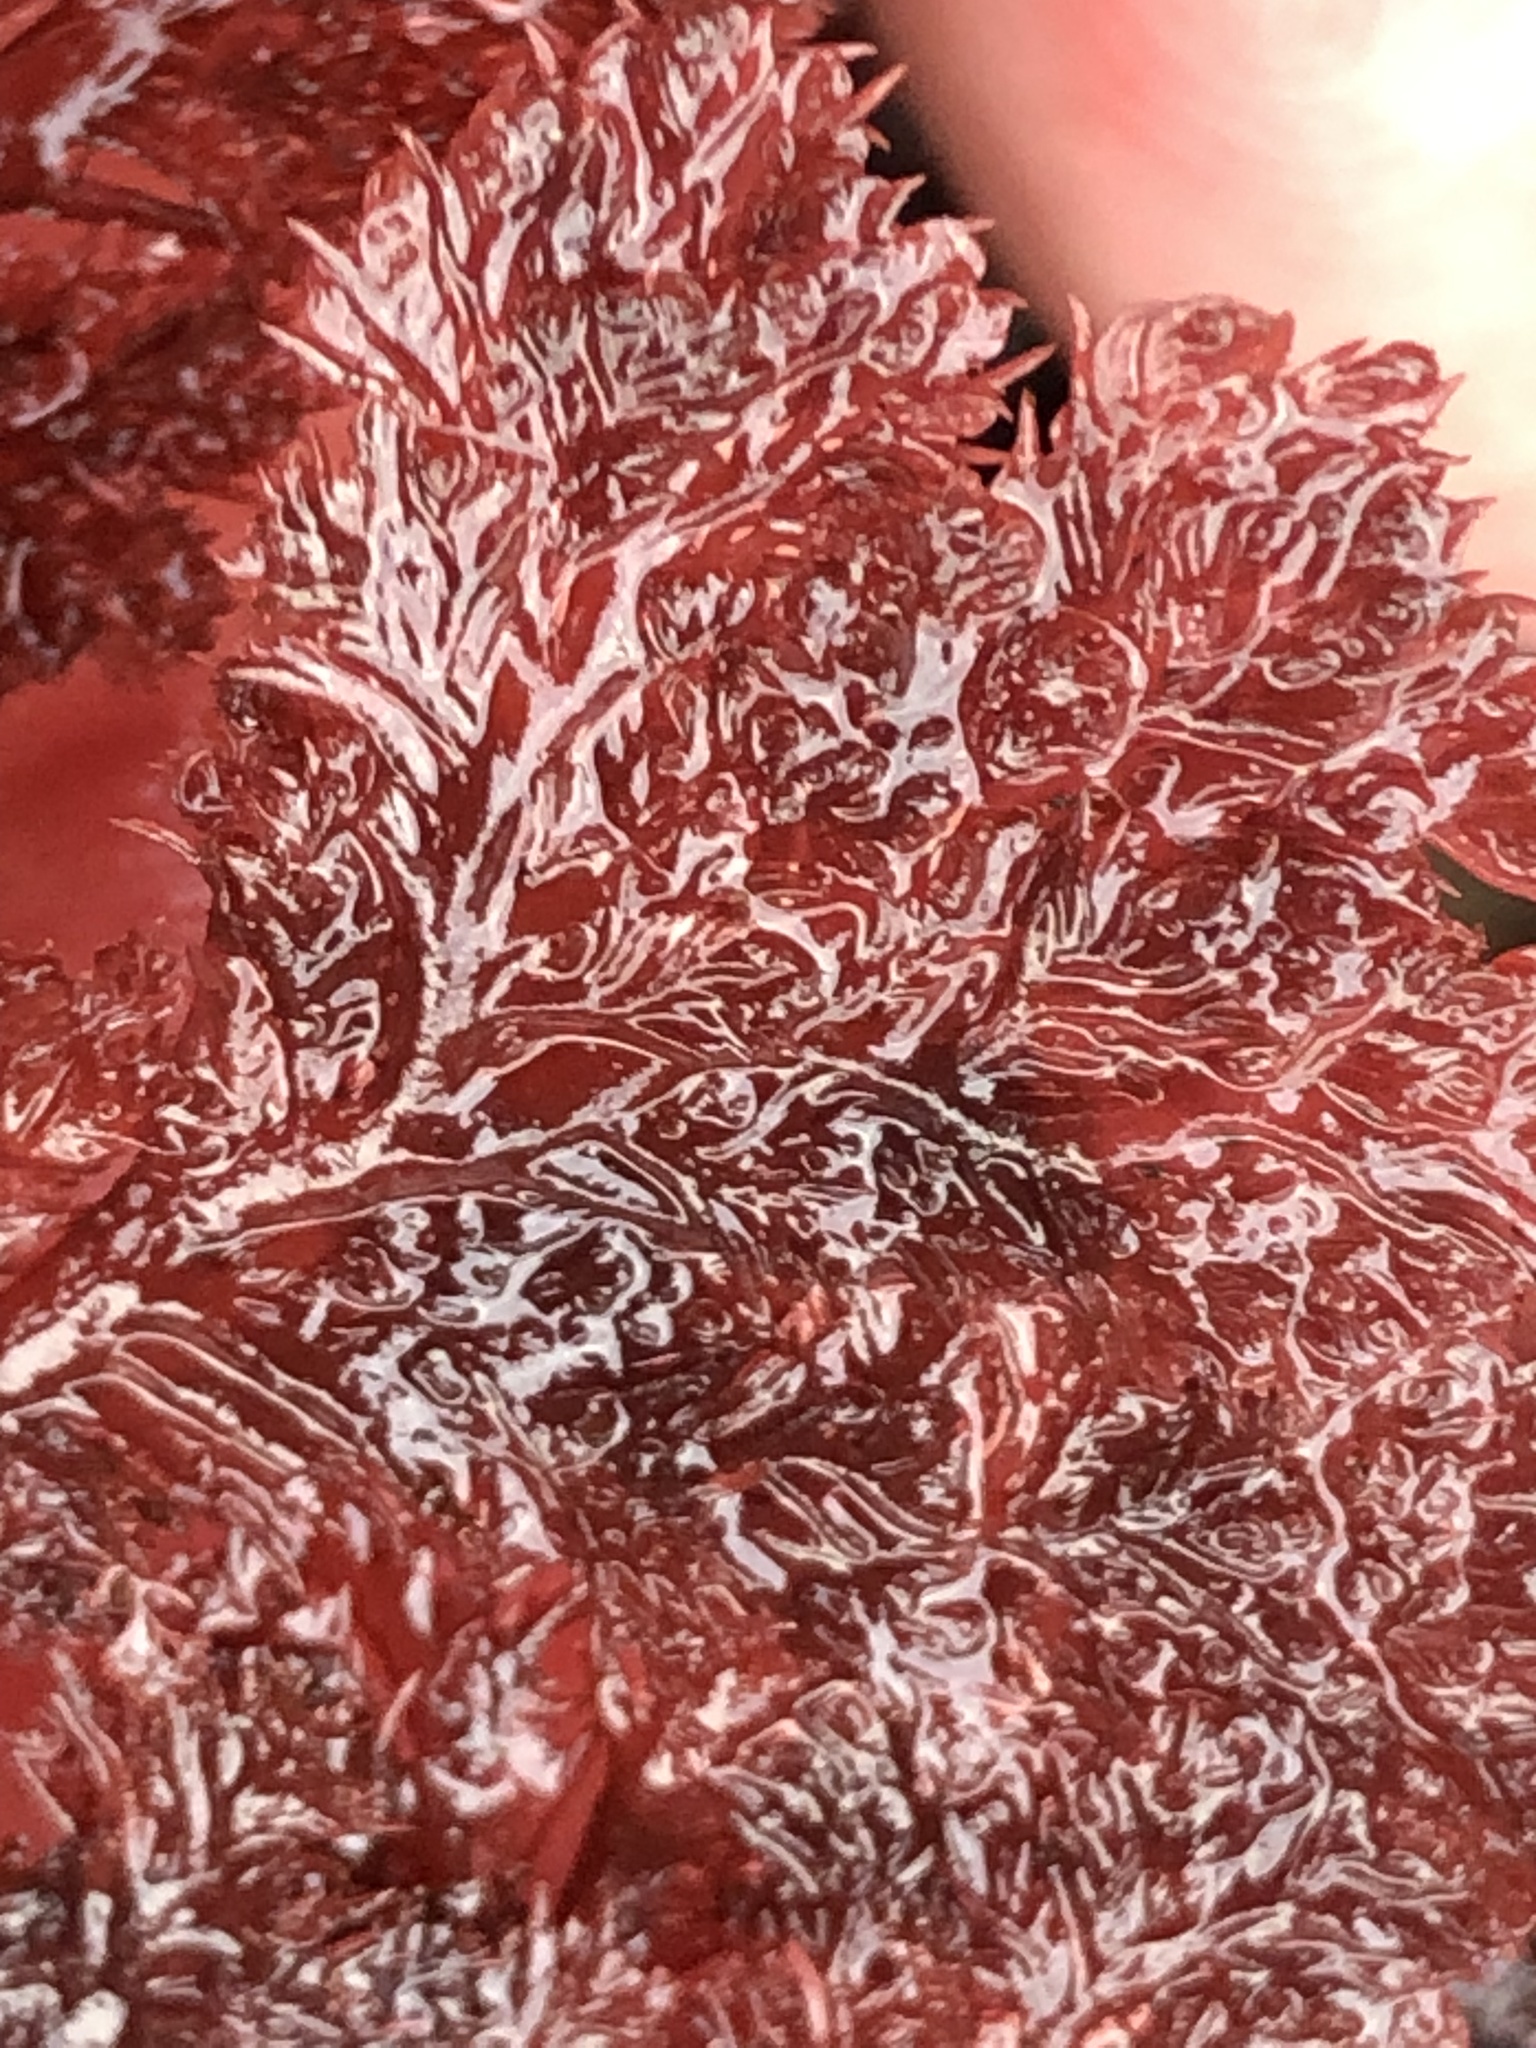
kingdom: Plantae
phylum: Rhodophyta
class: Florideophyceae
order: Plocamiales
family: Plocamiaceae
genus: Plocamium
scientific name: Plocamium cartilagineum
